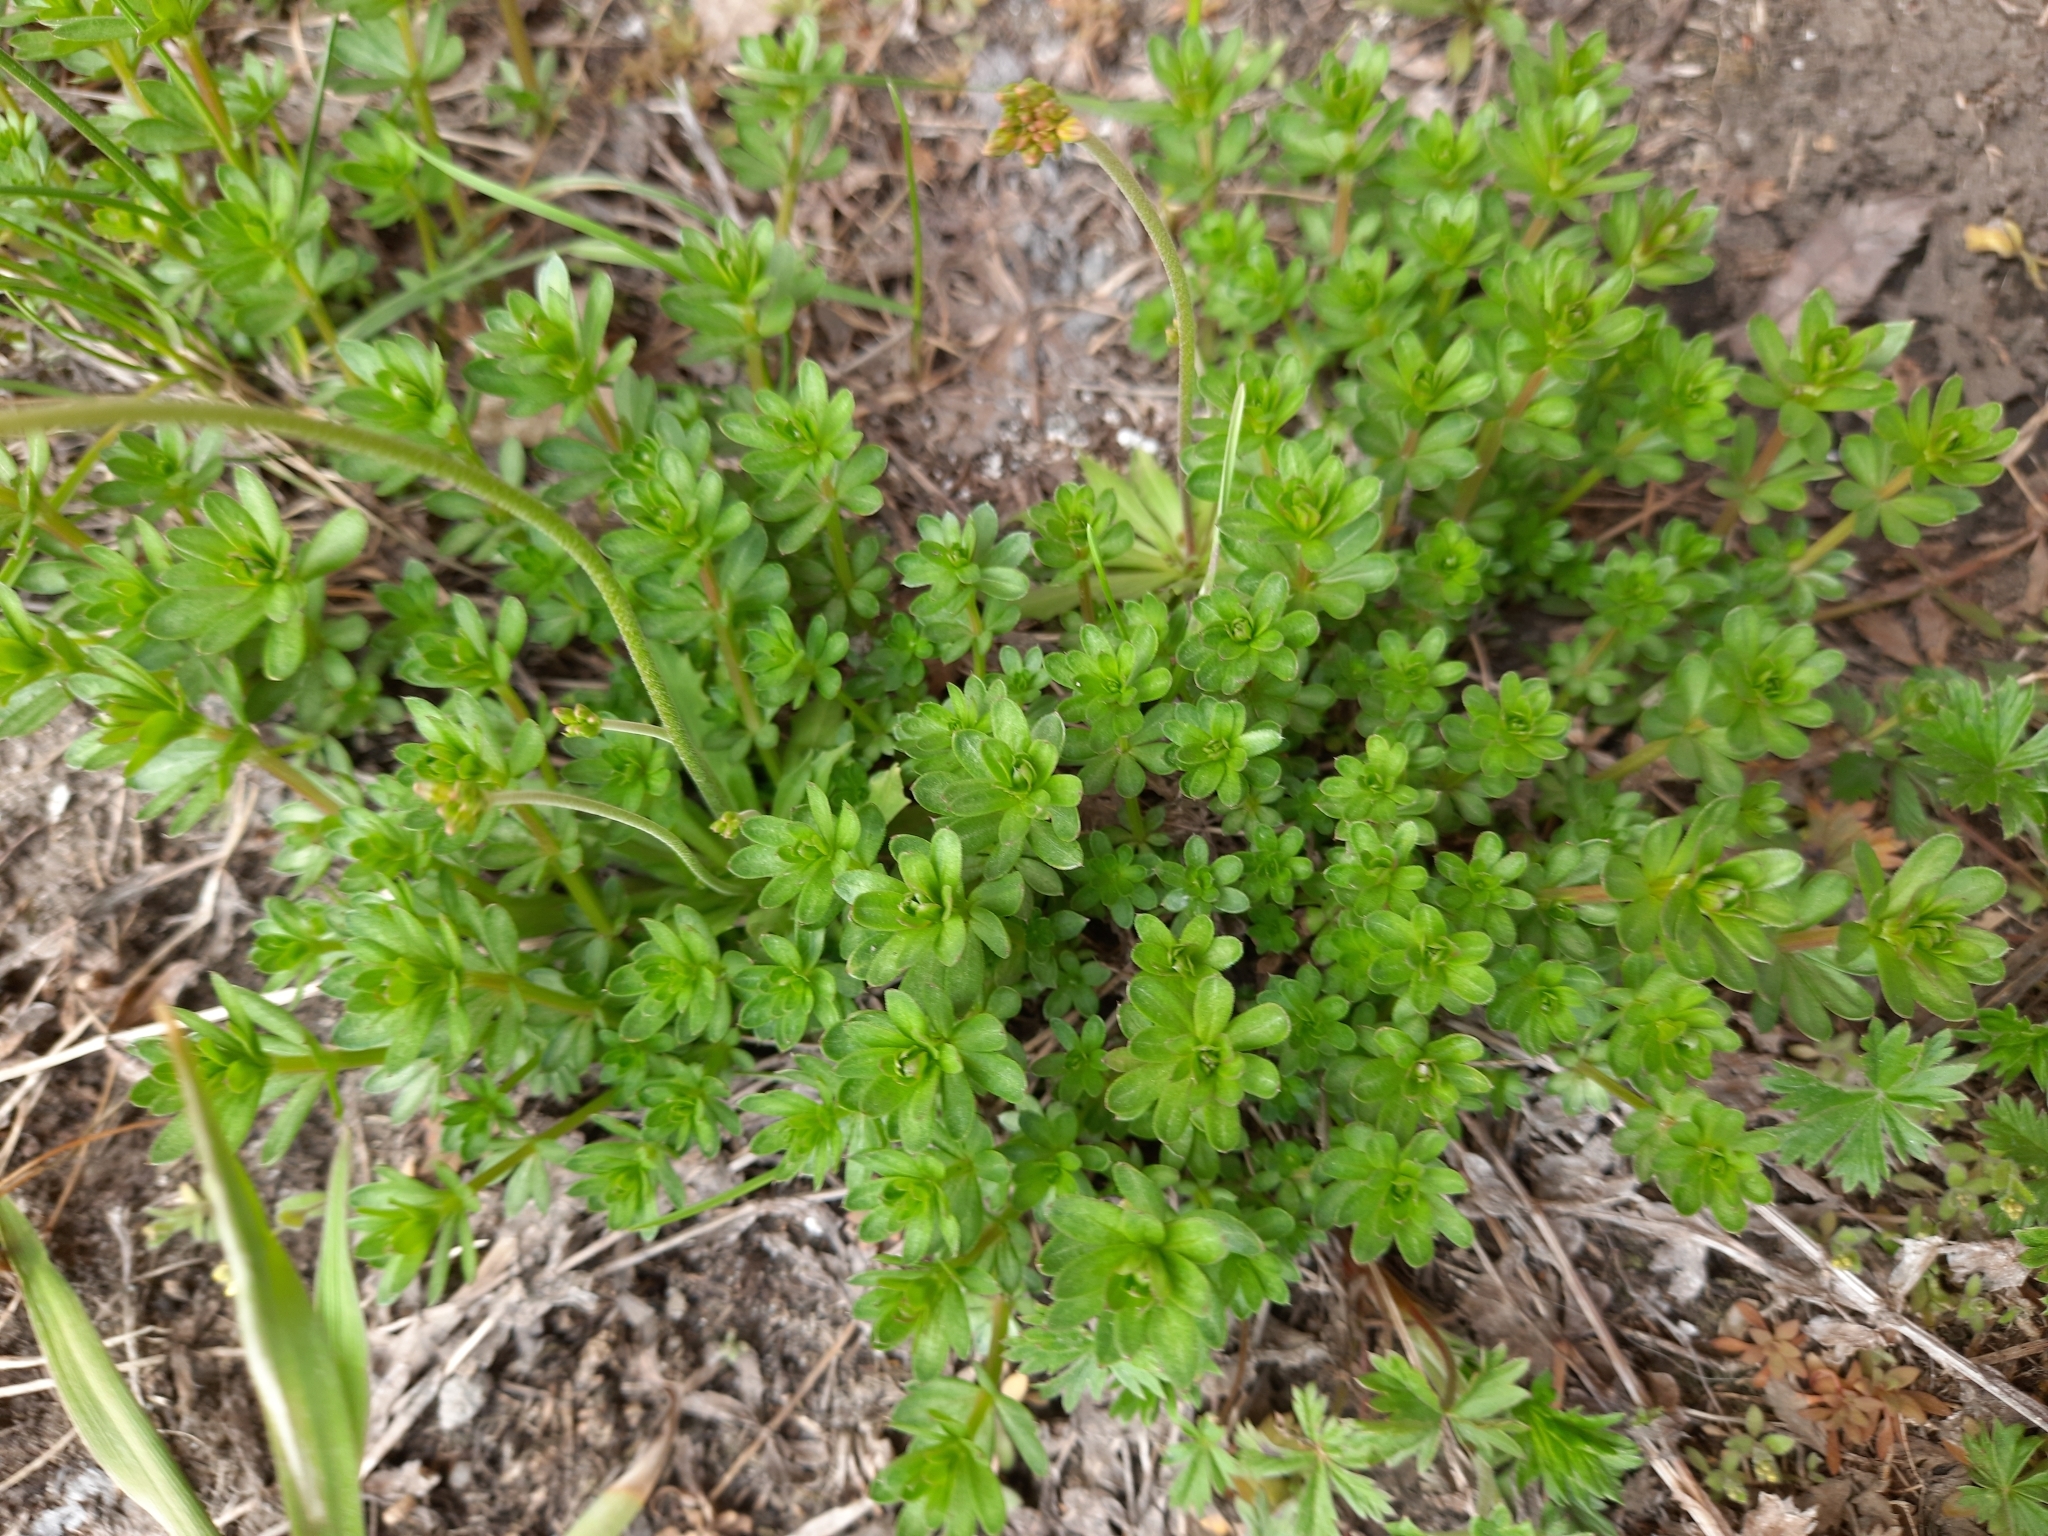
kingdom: Plantae
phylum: Tracheophyta
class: Magnoliopsida
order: Gentianales
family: Rubiaceae
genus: Galium
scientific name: Galium mollugo
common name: Hedge bedstraw
